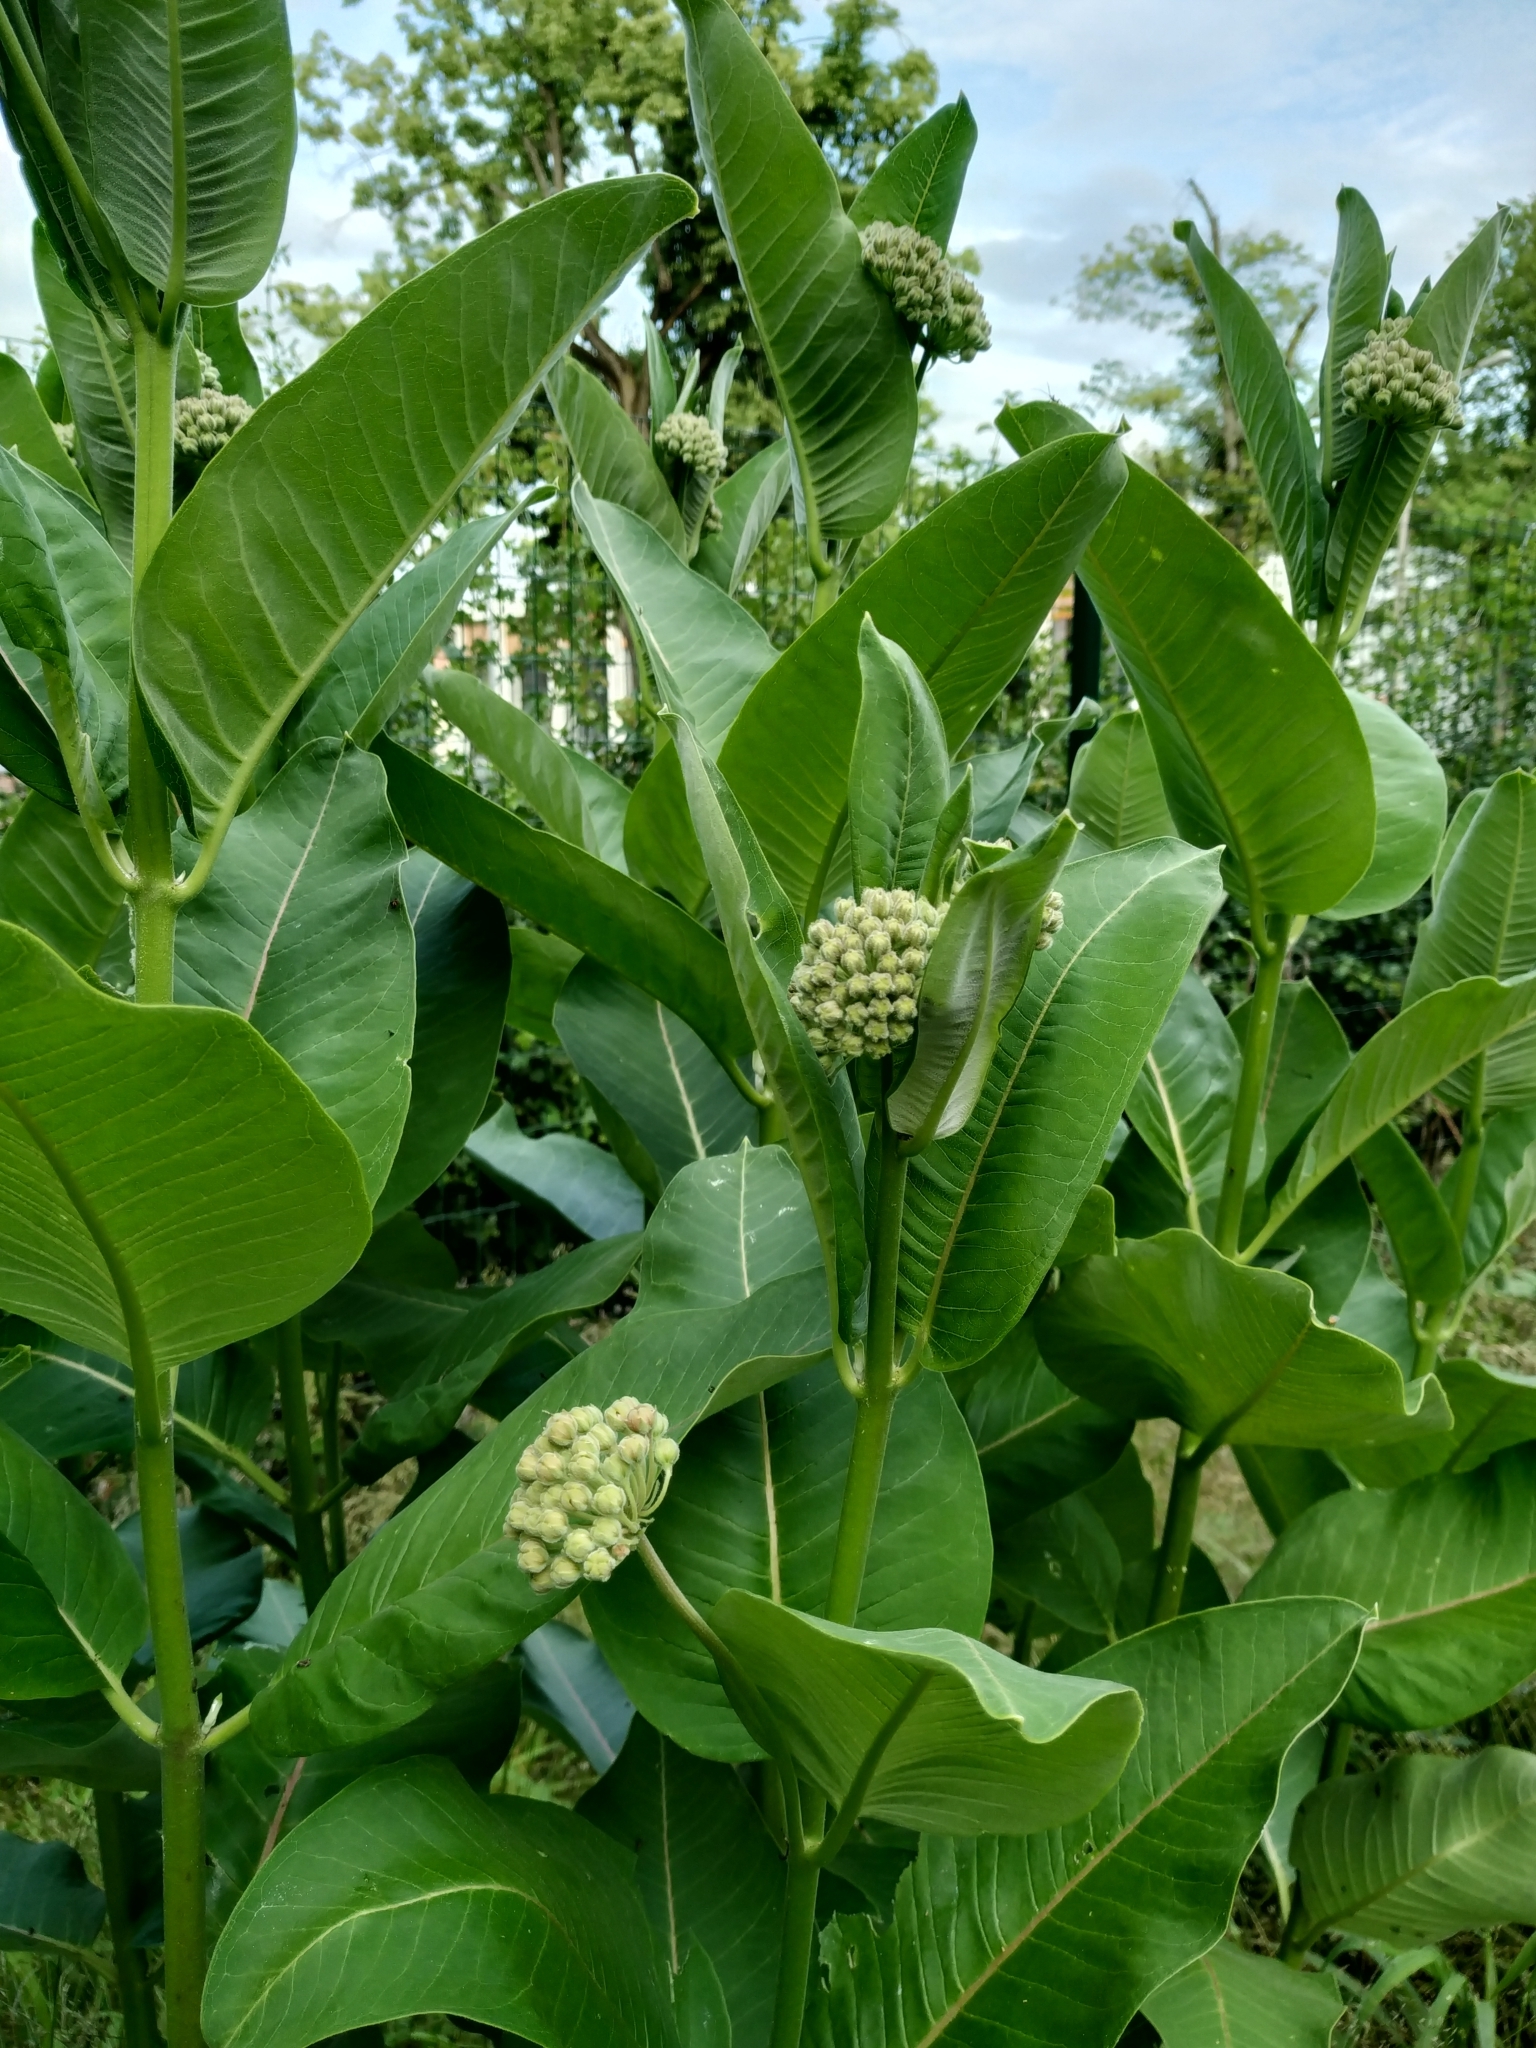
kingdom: Plantae
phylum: Tracheophyta
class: Magnoliopsida
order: Gentianales
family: Apocynaceae
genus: Asclepias
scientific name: Asclepias syriaca
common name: Common milkweed
